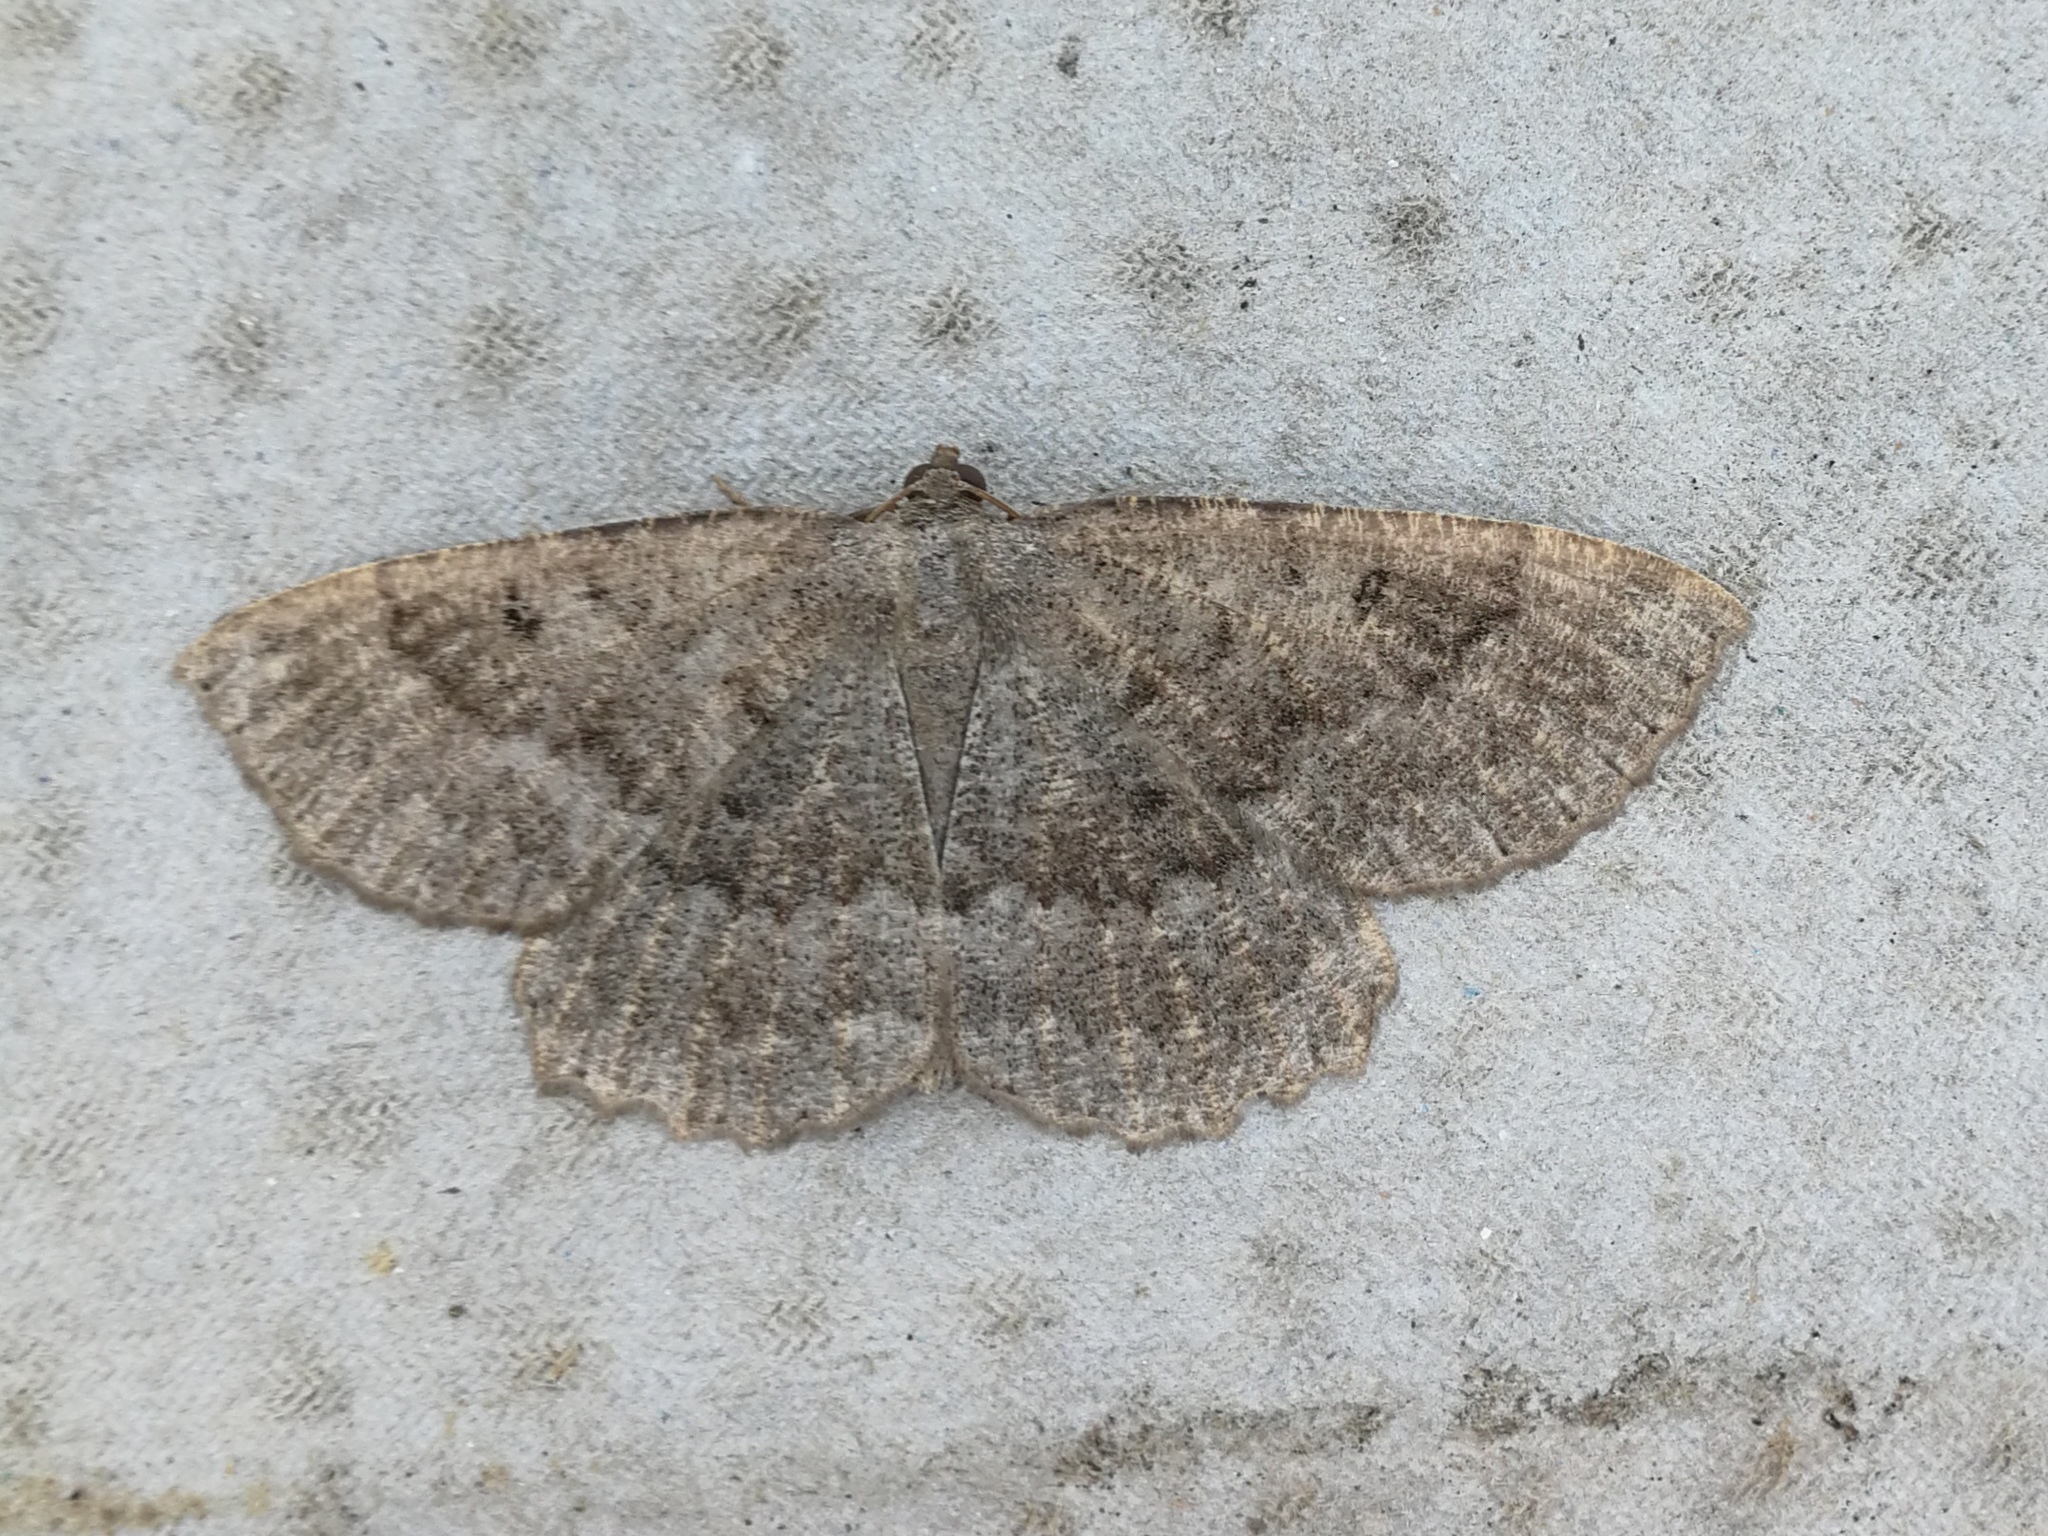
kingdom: Animalia
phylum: Arthropoda
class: Insecta
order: Lepidoptera
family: Geometridae
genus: Gnophos
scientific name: Gnophos furvata
